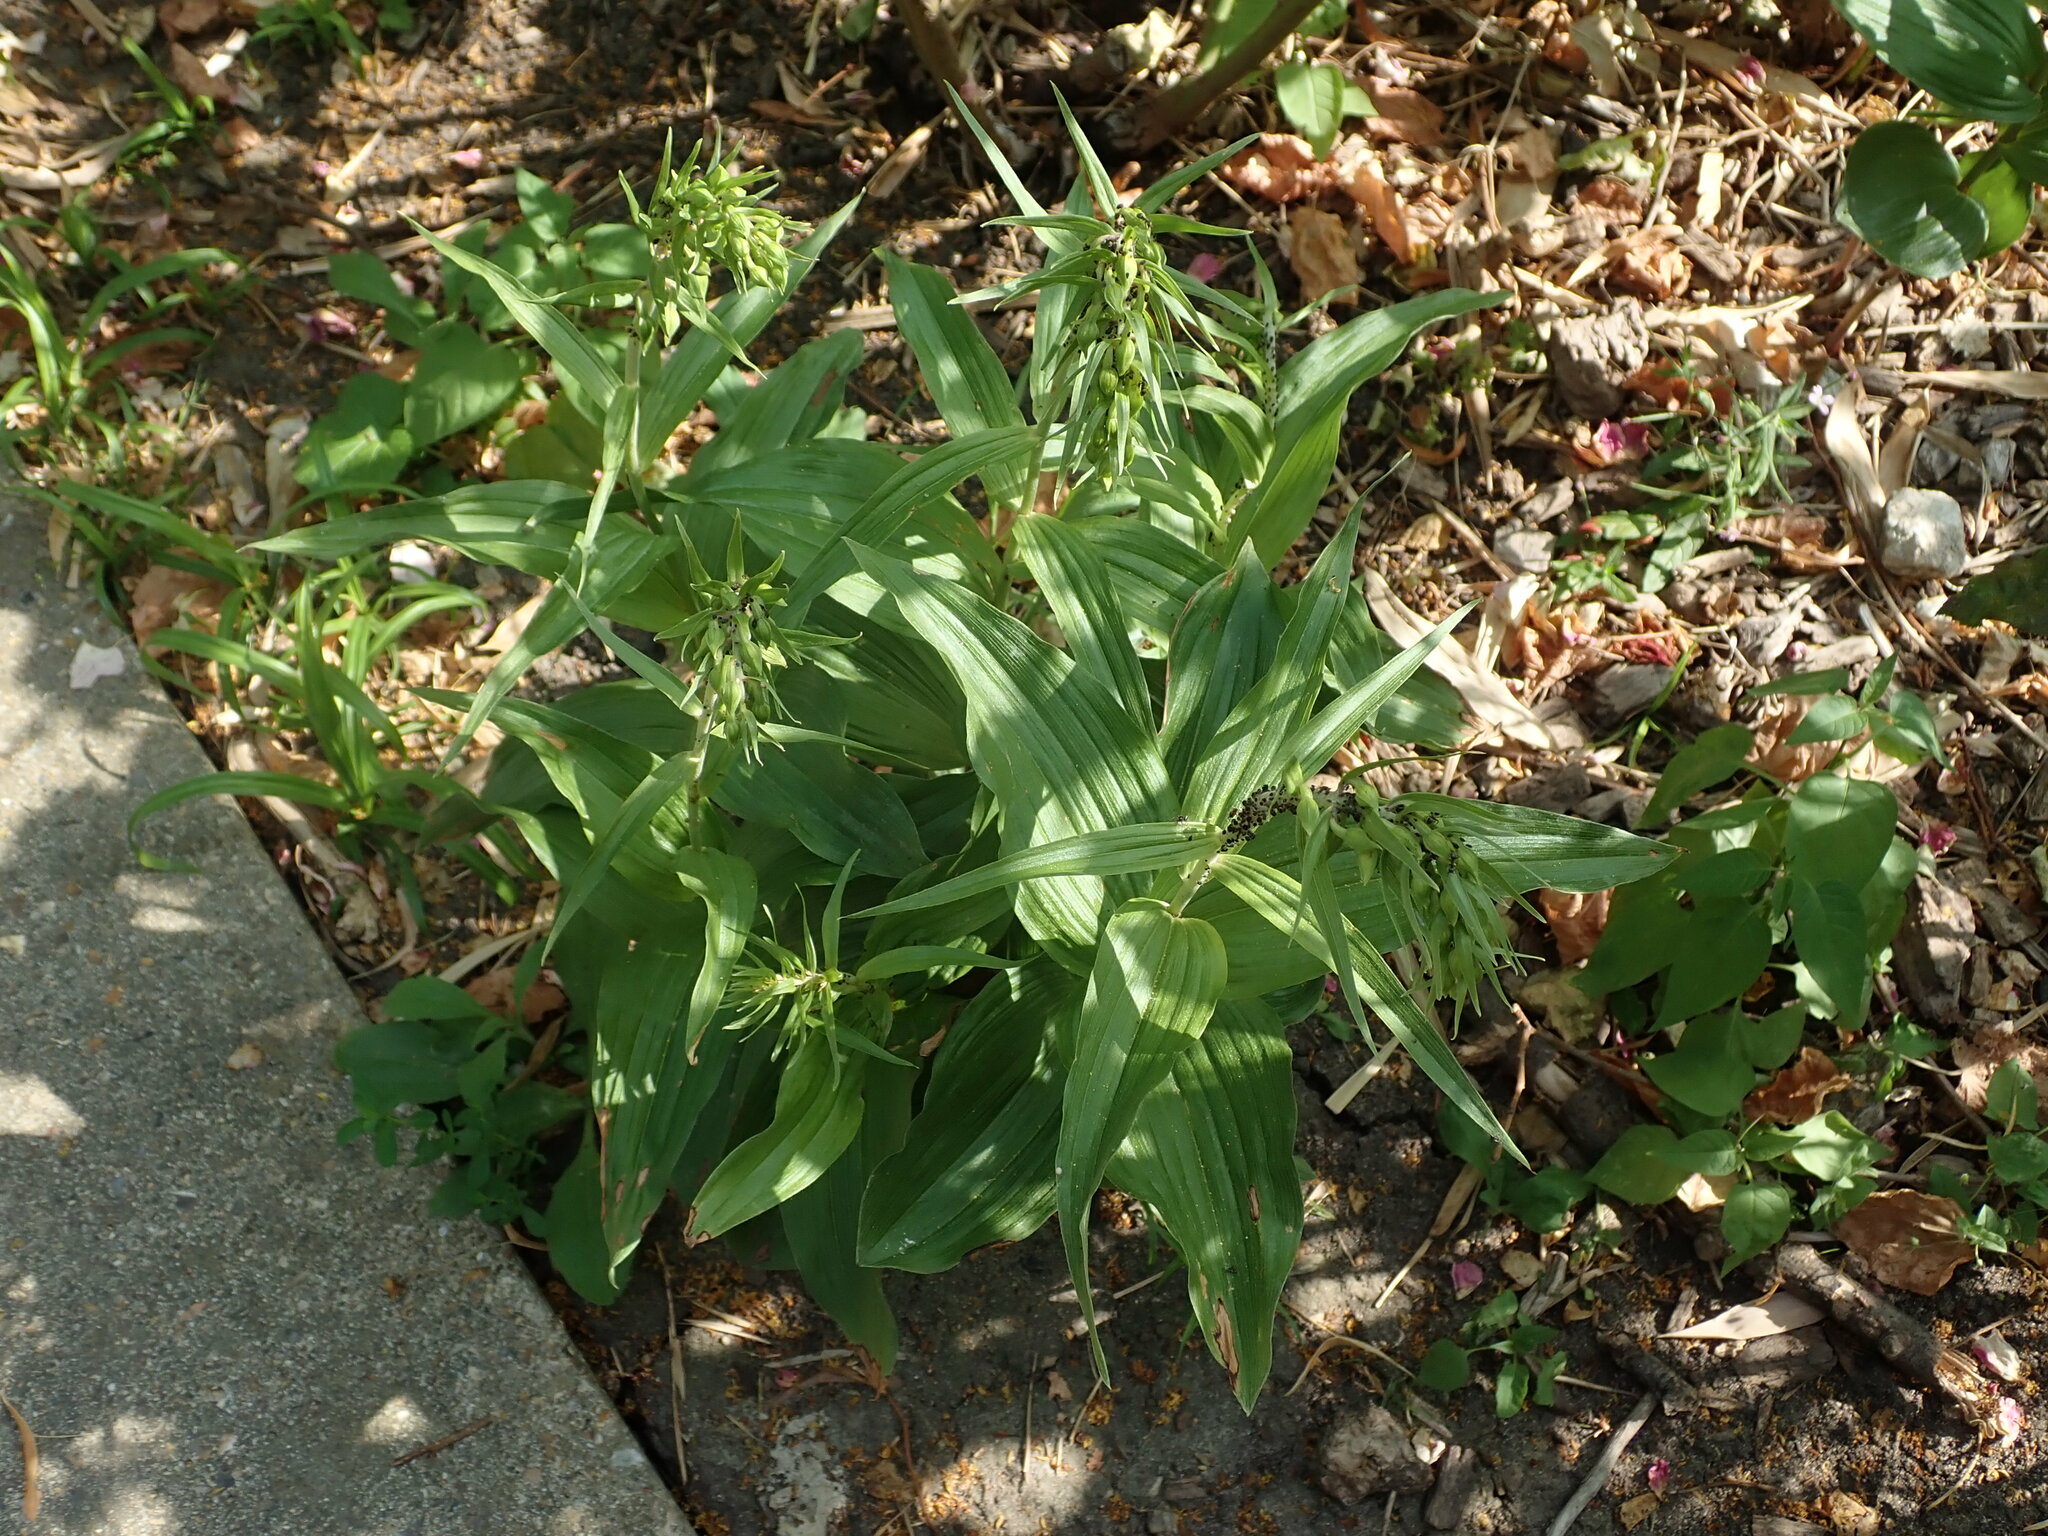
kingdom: Plantae
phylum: Tracheophyta
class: Liliopsida
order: Asparagales
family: Orchidaceae
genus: Epipactis
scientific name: Epipactis helleborine
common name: Broad-leaved helleborine
